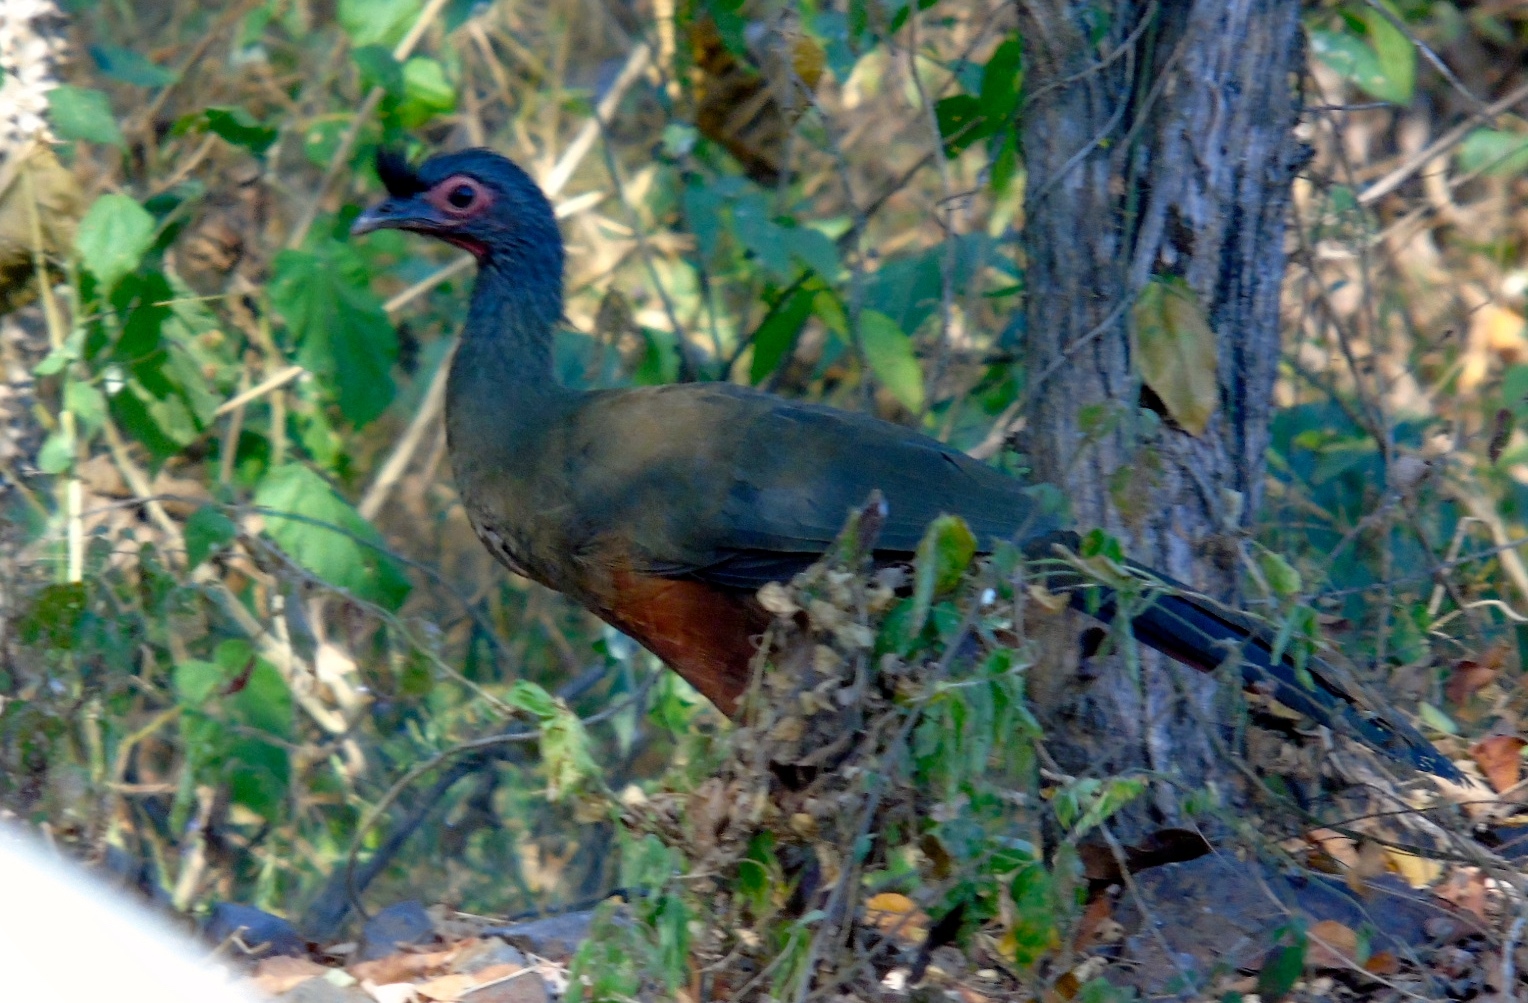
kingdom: Animalia
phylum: Chordata
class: Aves
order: Galliformes
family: Cracidae
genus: Ortalis
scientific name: Ortalis wagleri
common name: Rufous-bellied chachalaca
